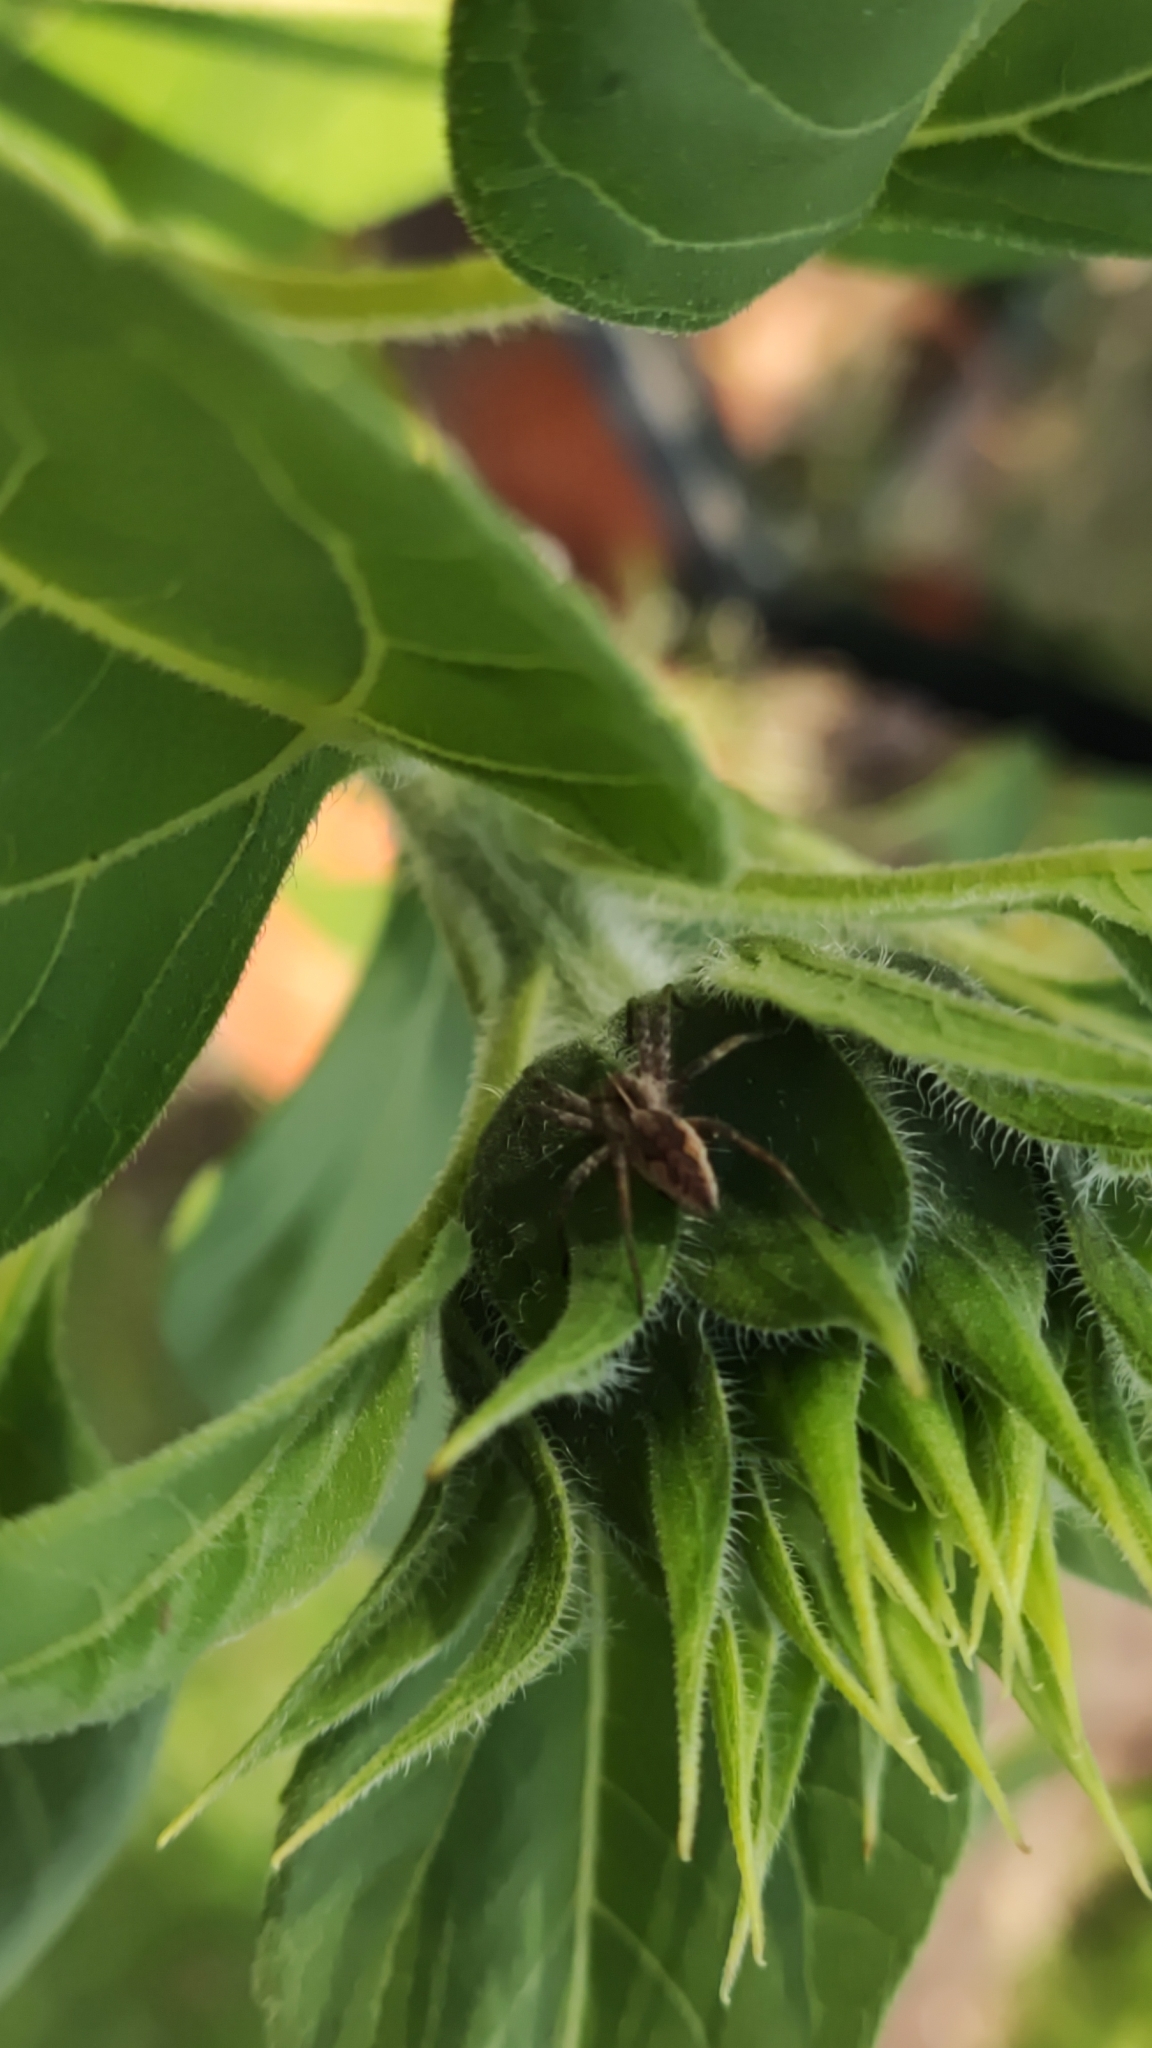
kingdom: Animalia
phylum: Arthropoda
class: Arachnida
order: Araneae
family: Pisauridae
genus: Pisaura
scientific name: Pisaura mirabilis
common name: Tent spider
